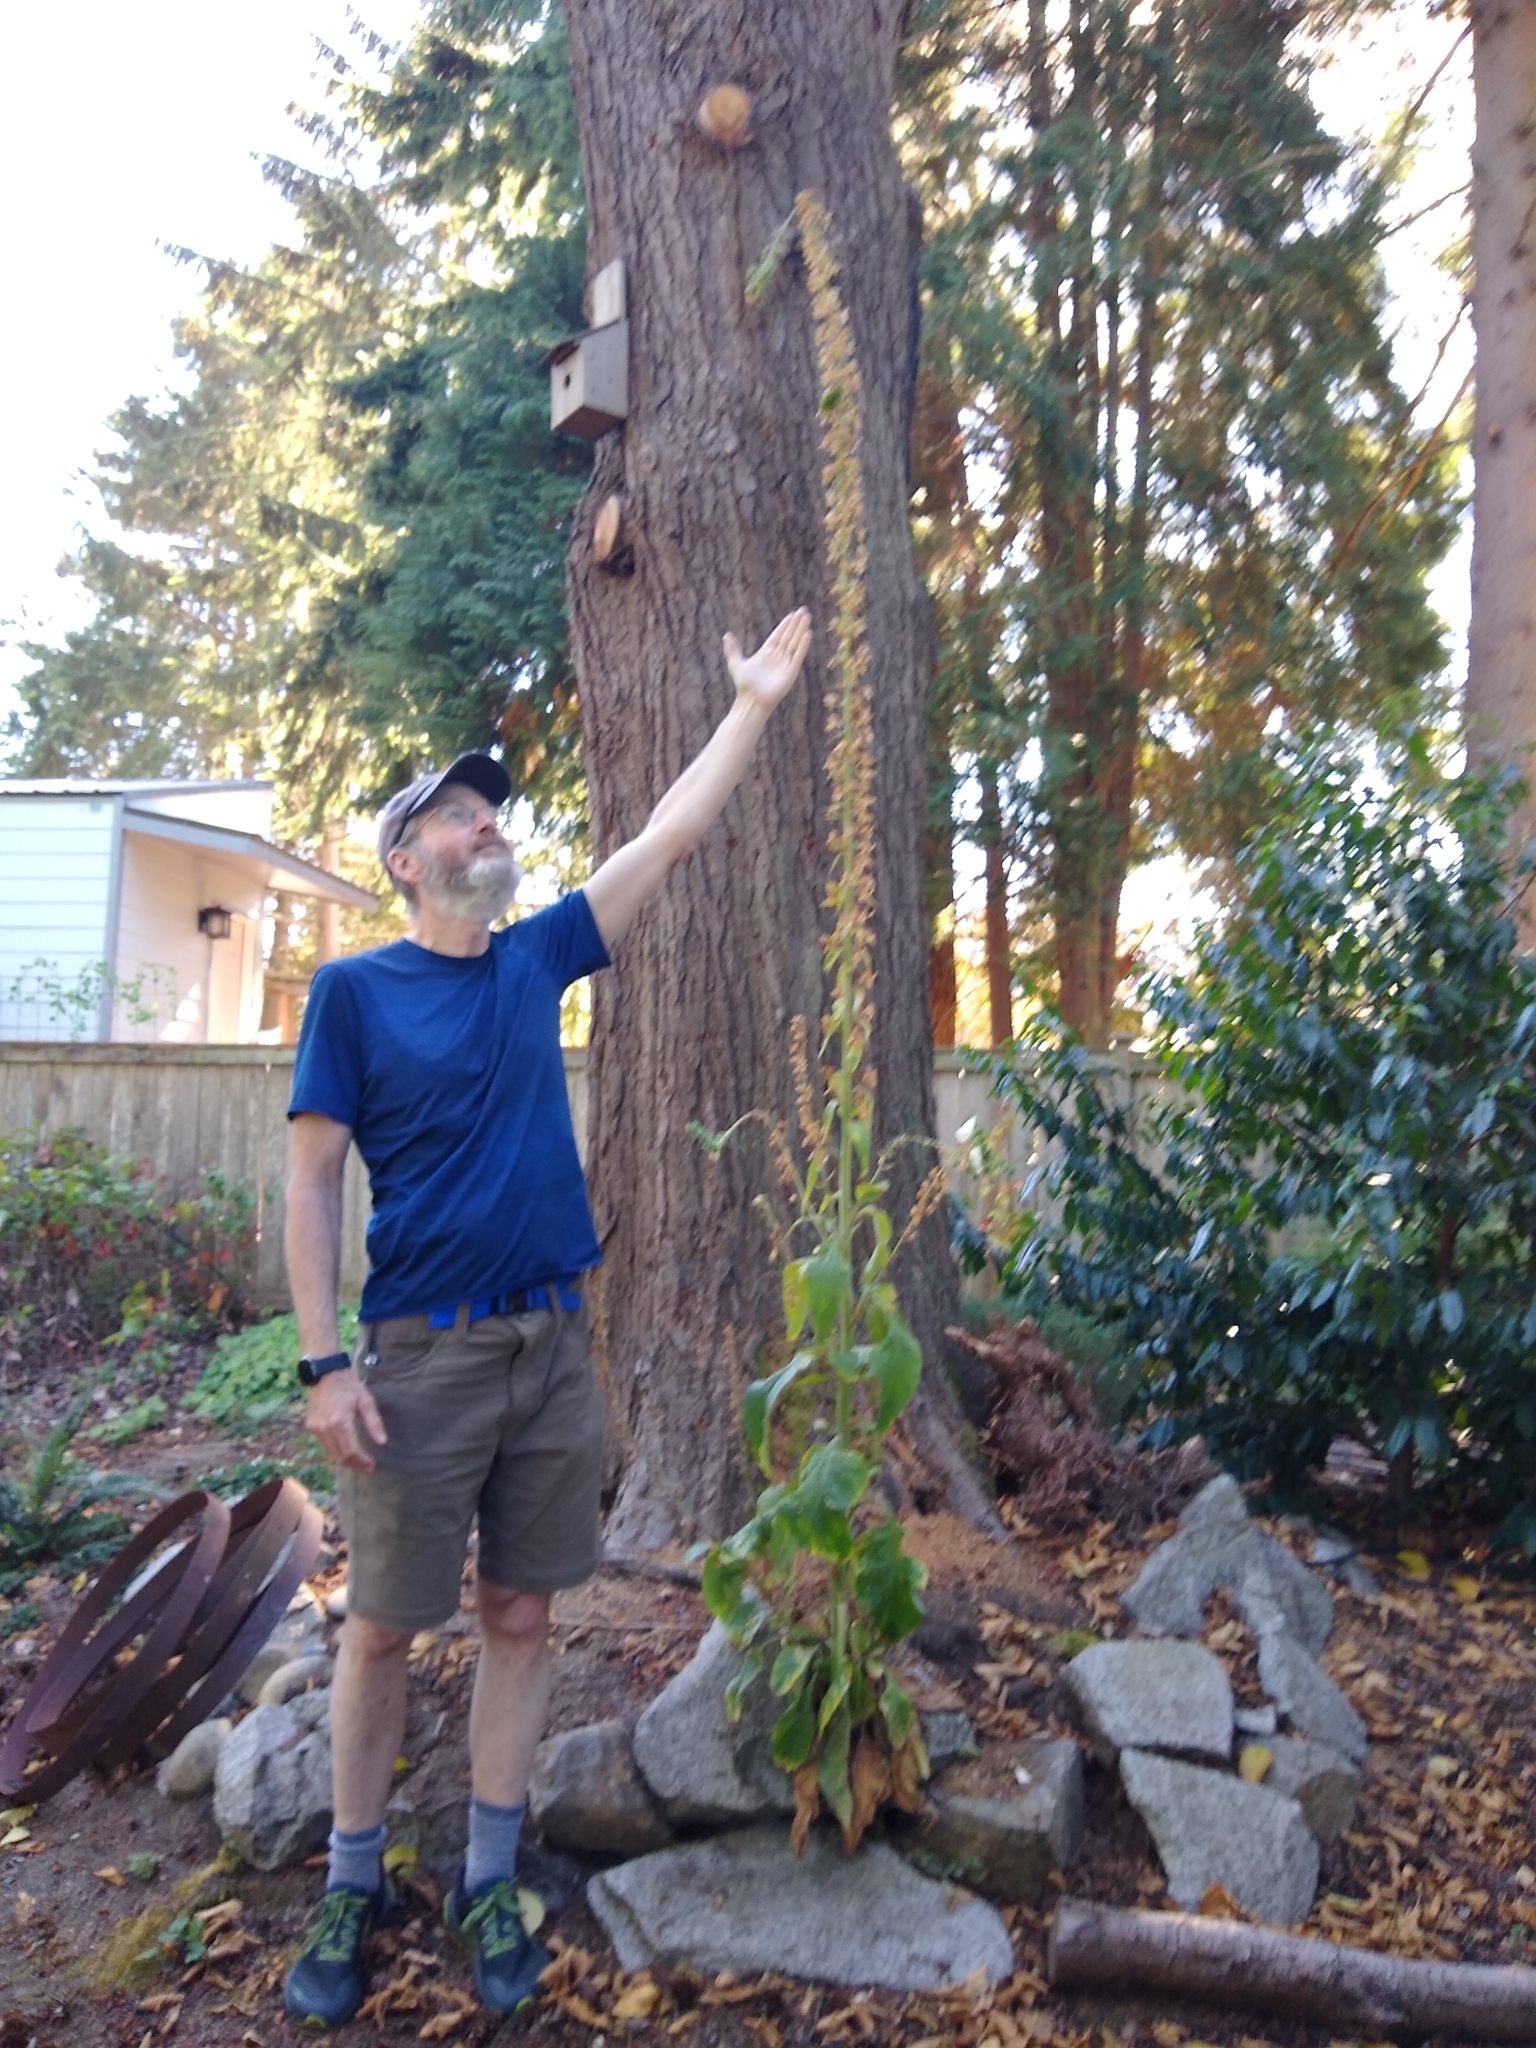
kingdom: Plantae
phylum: Tracheophyta
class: Magnoliopsida
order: Lamiales
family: Plantaginaceae
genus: Digitalis
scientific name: Digitalis purpurea
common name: Foxglove
